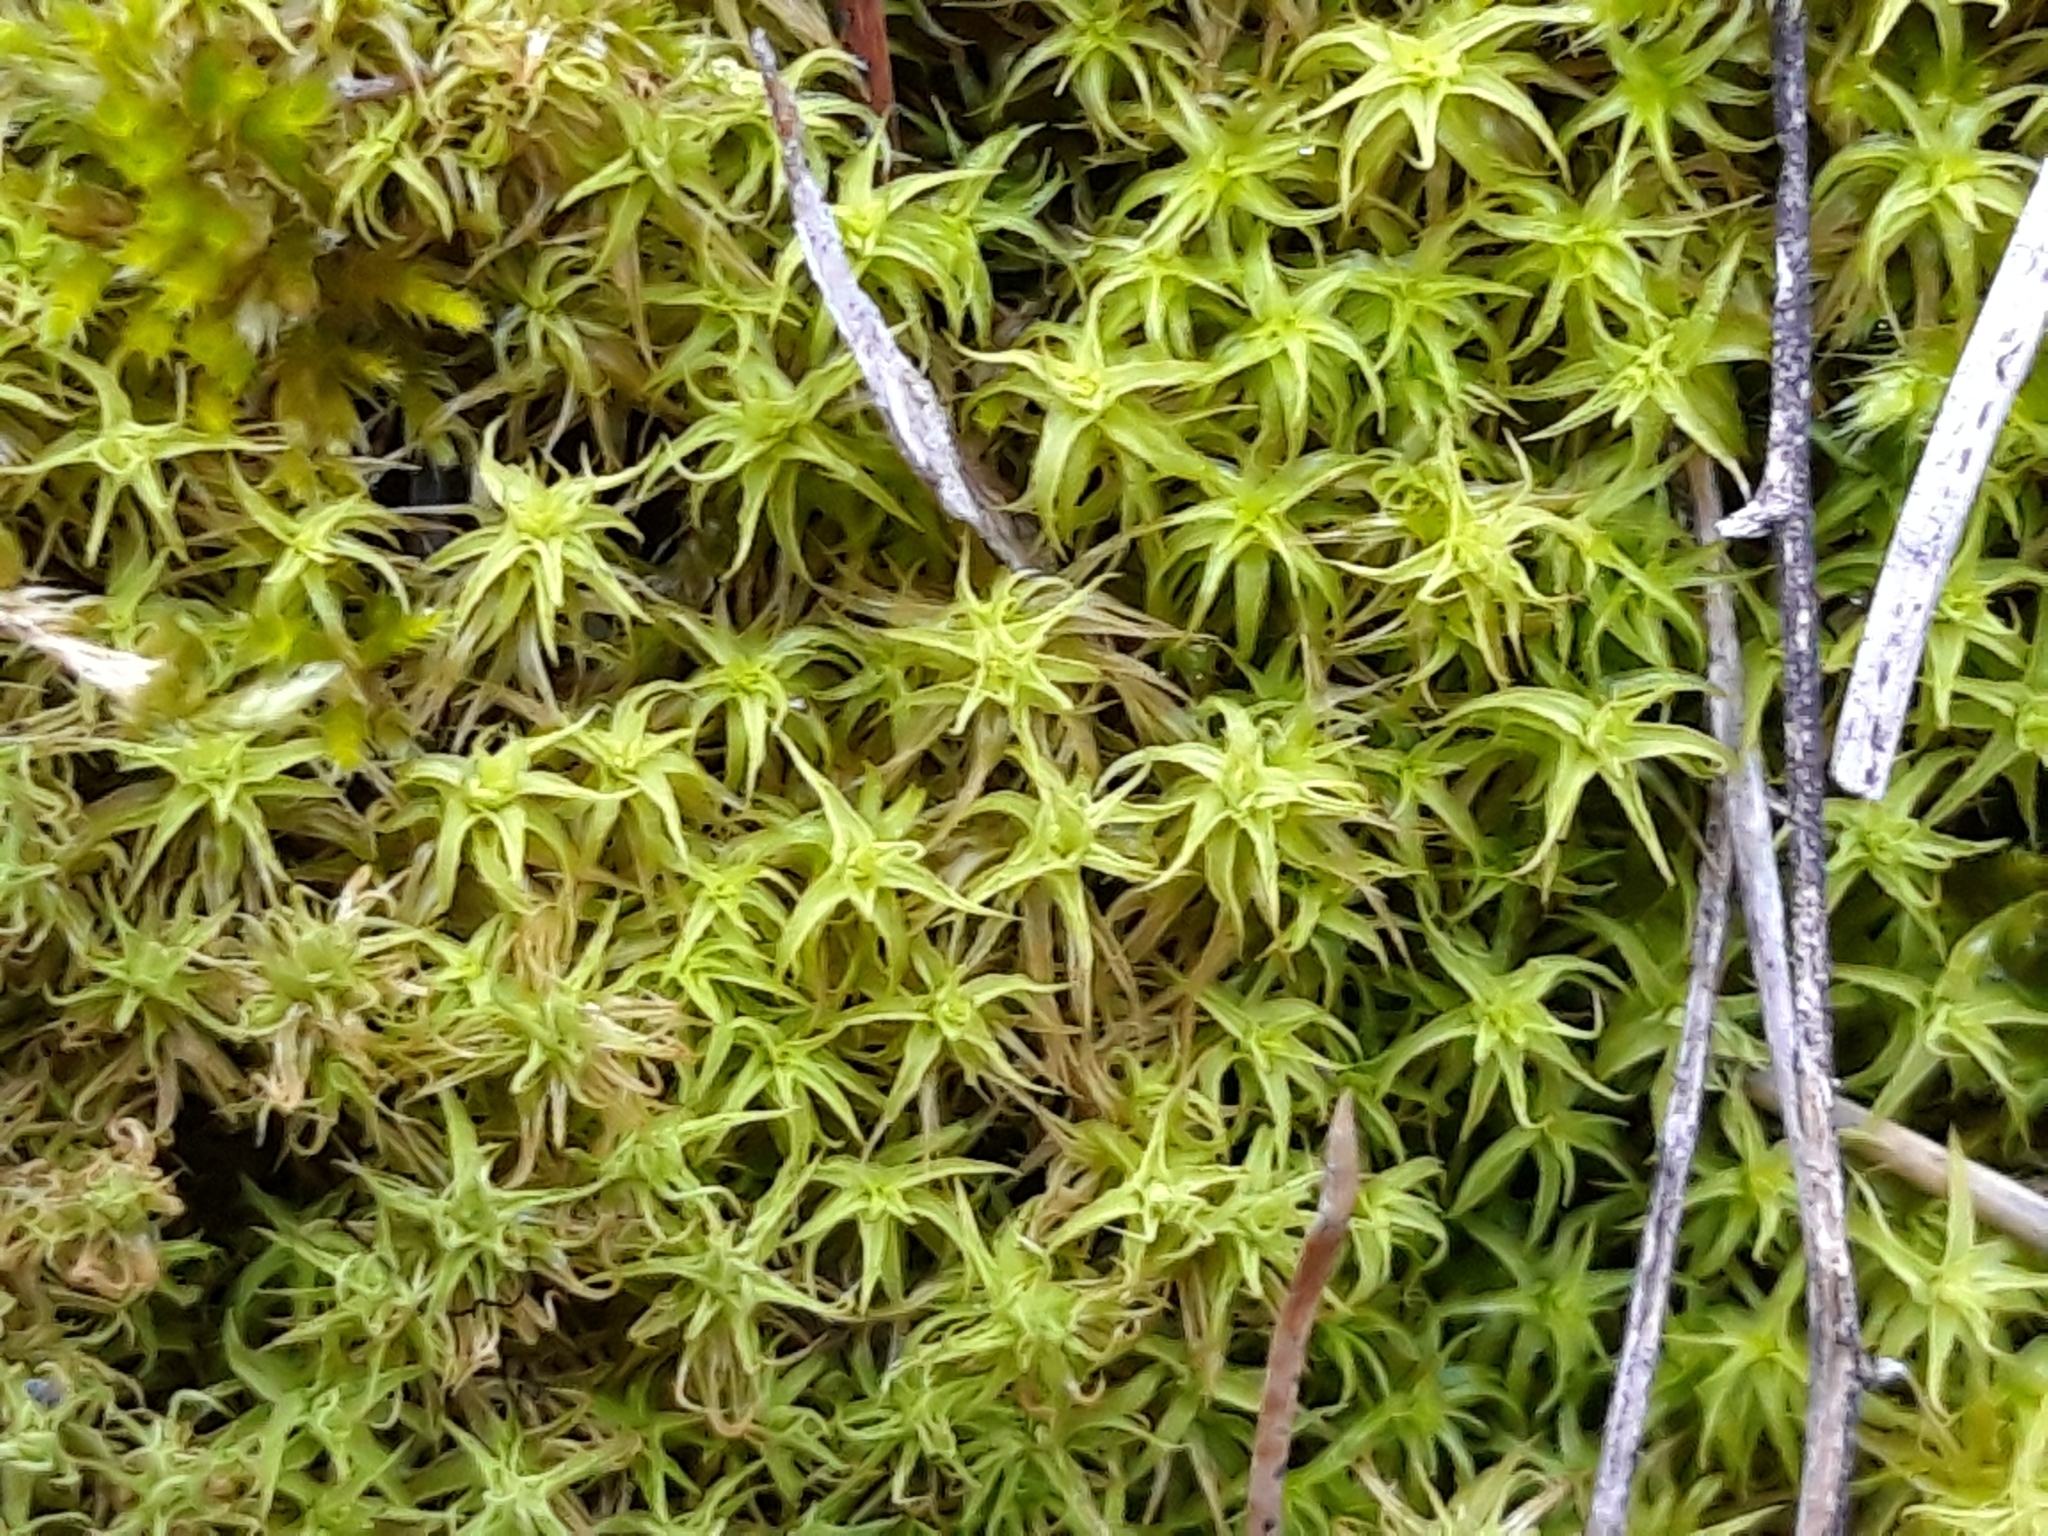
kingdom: Plantae
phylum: Bryophyta
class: Bryopsida
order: Pottiales
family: Pottiaceae
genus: Pleurochaete
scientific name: Pleurochaete squarrosa
